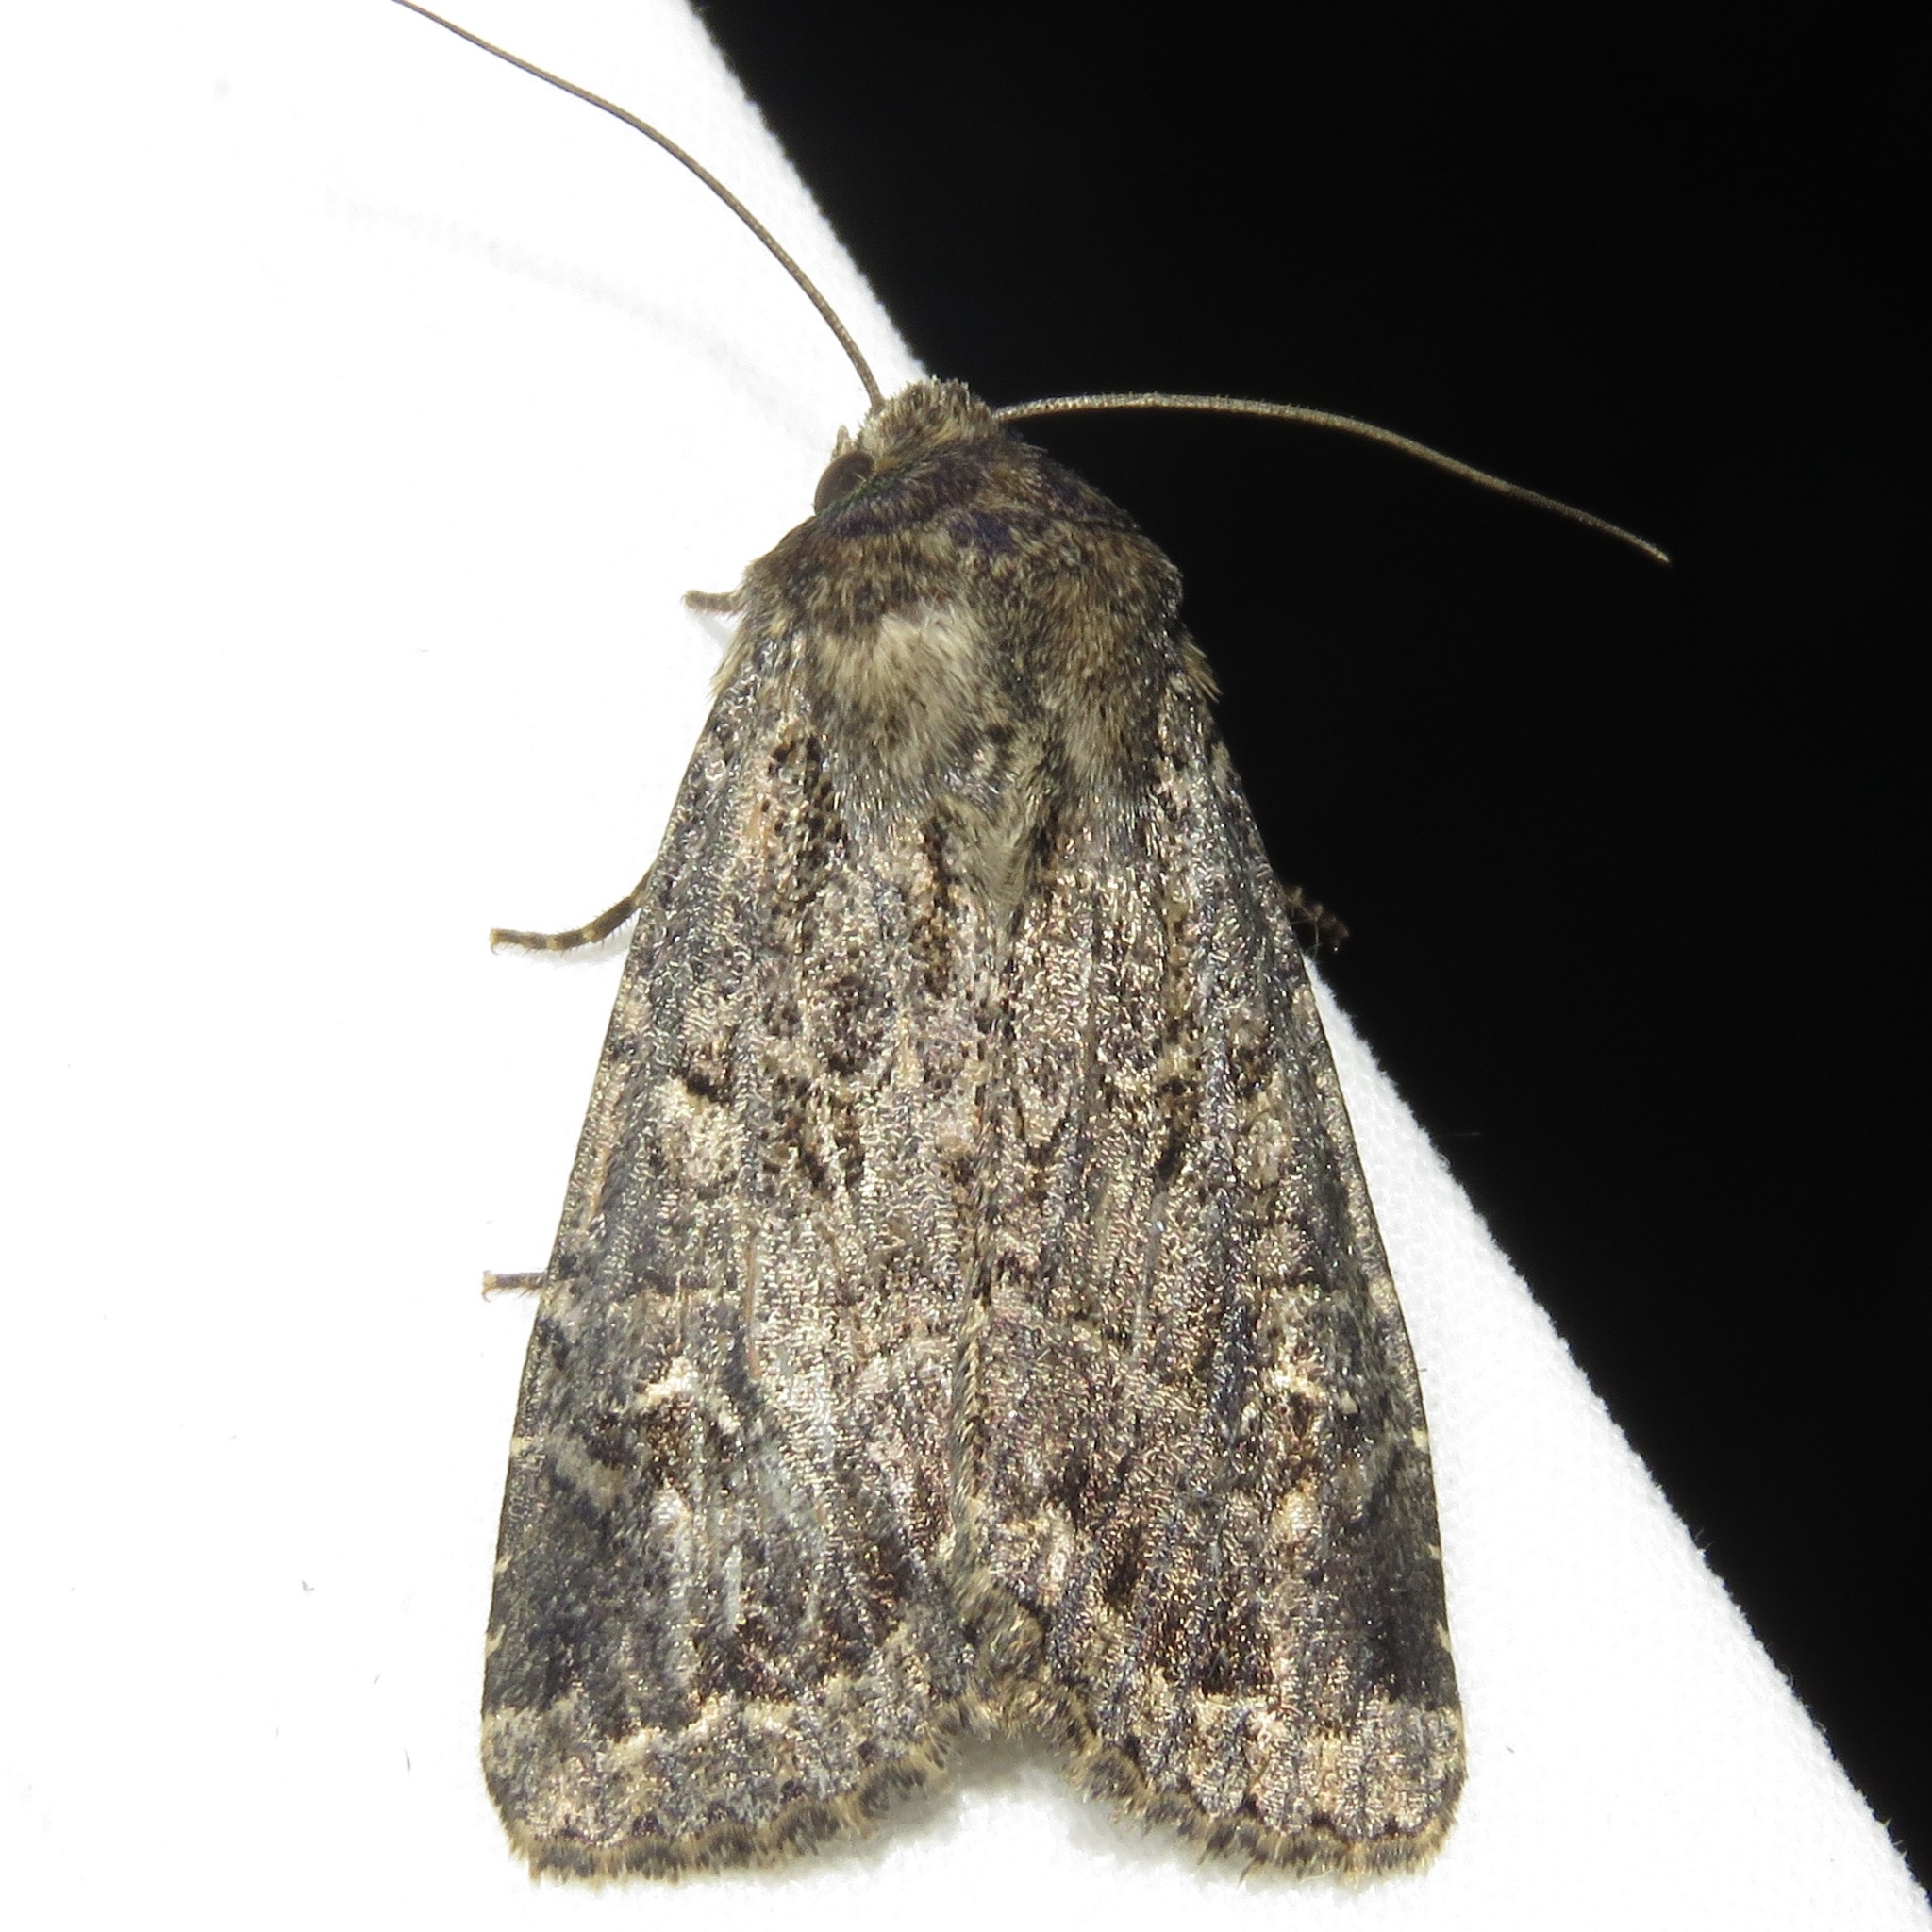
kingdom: Animalia
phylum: Arthropoda
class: Insecta
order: Lepidoptera
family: Noctuidae
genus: Apamea
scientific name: Apamea devastator
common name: Glassy cutworm
